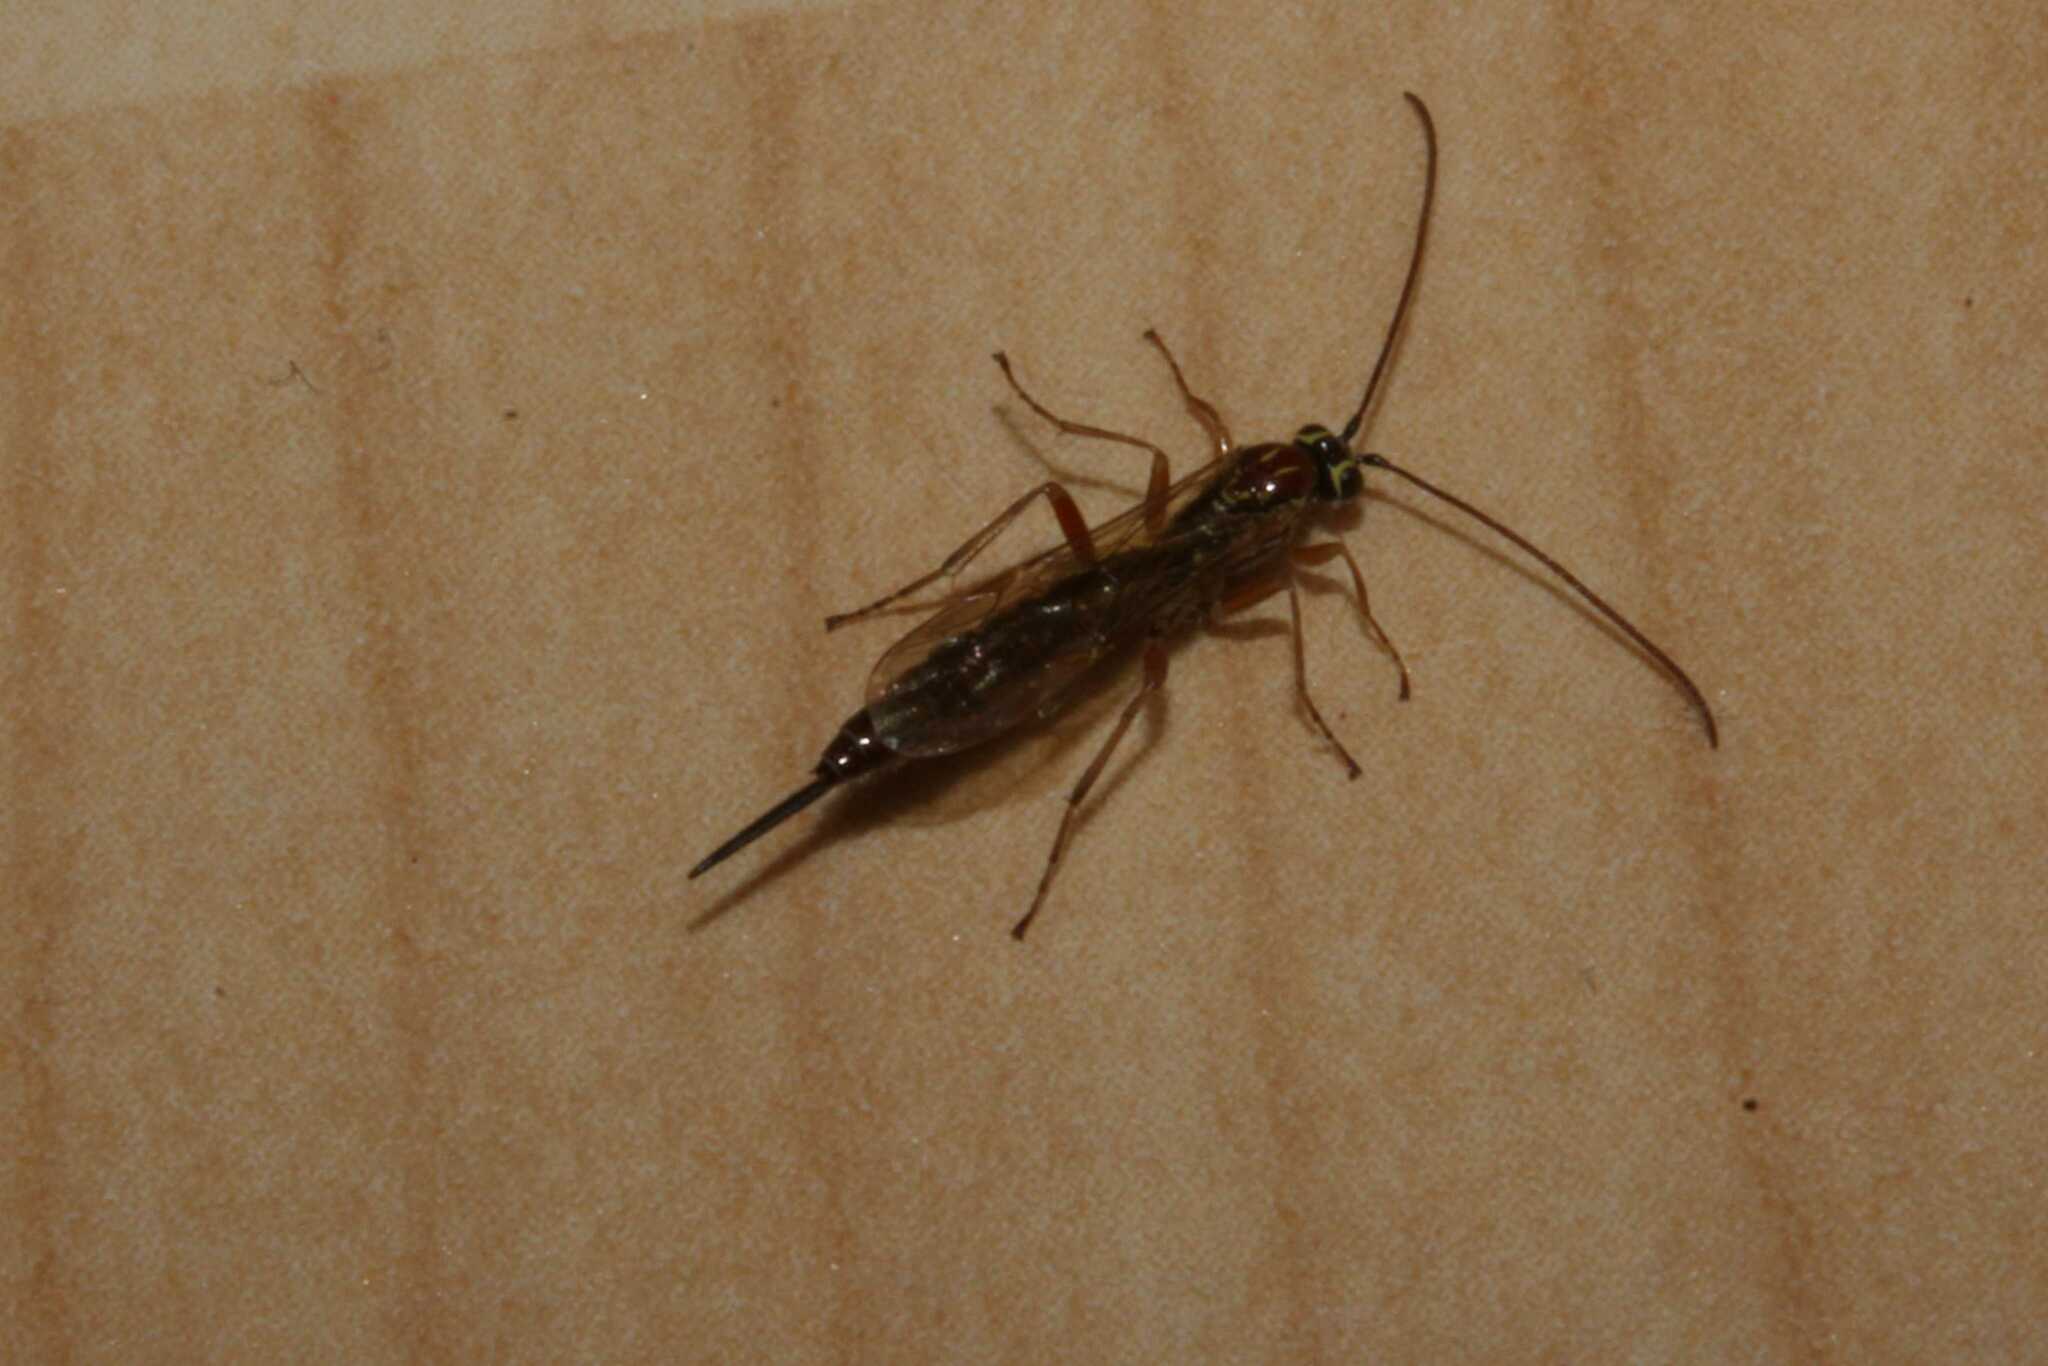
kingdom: Animalia
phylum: Arthropoda
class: Insecta
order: Hymenoptera
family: Ichneumonidae
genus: Tromatobia
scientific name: Tromatobia lineatoria
